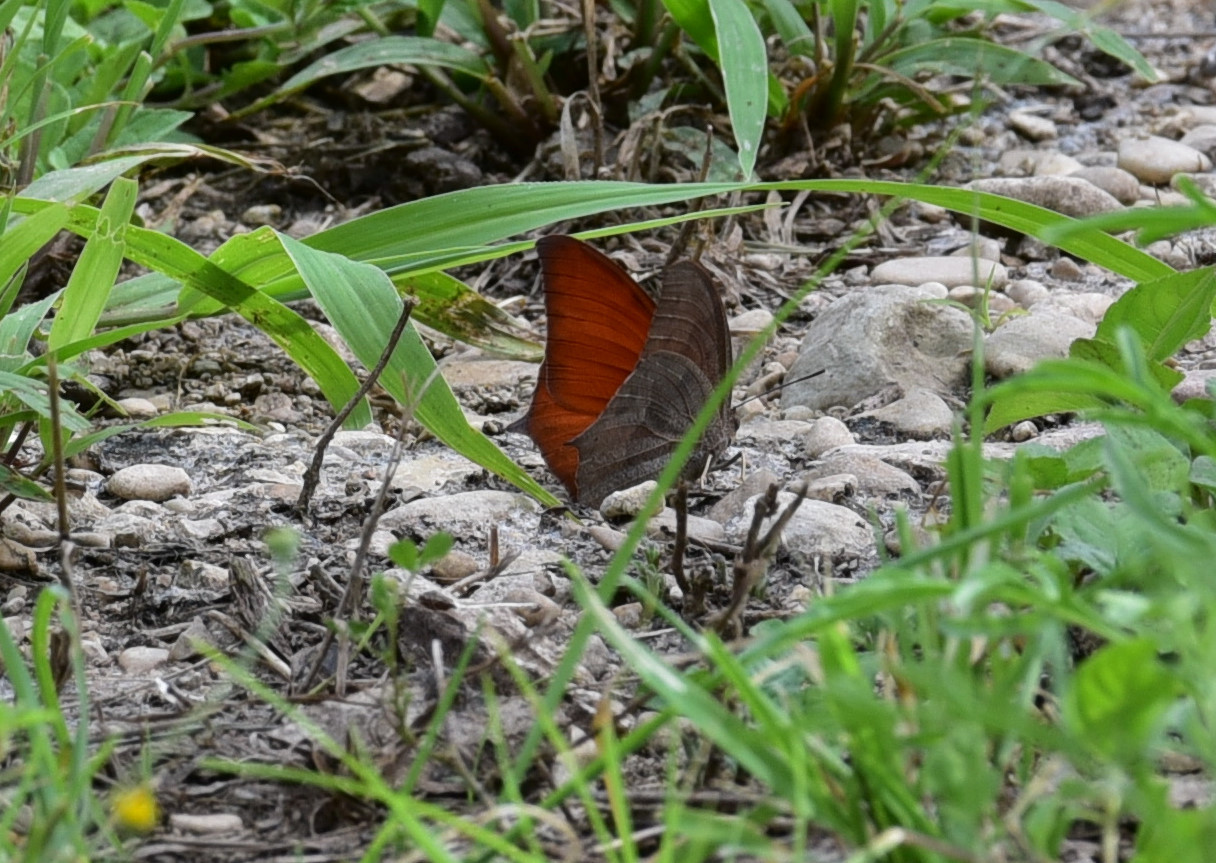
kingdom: Animalia
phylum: Arthropoda
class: Insecta
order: Lepidoptera
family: Nymphalidae
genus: Anaea
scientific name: Anaea andria
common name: Goatweed leafwing
